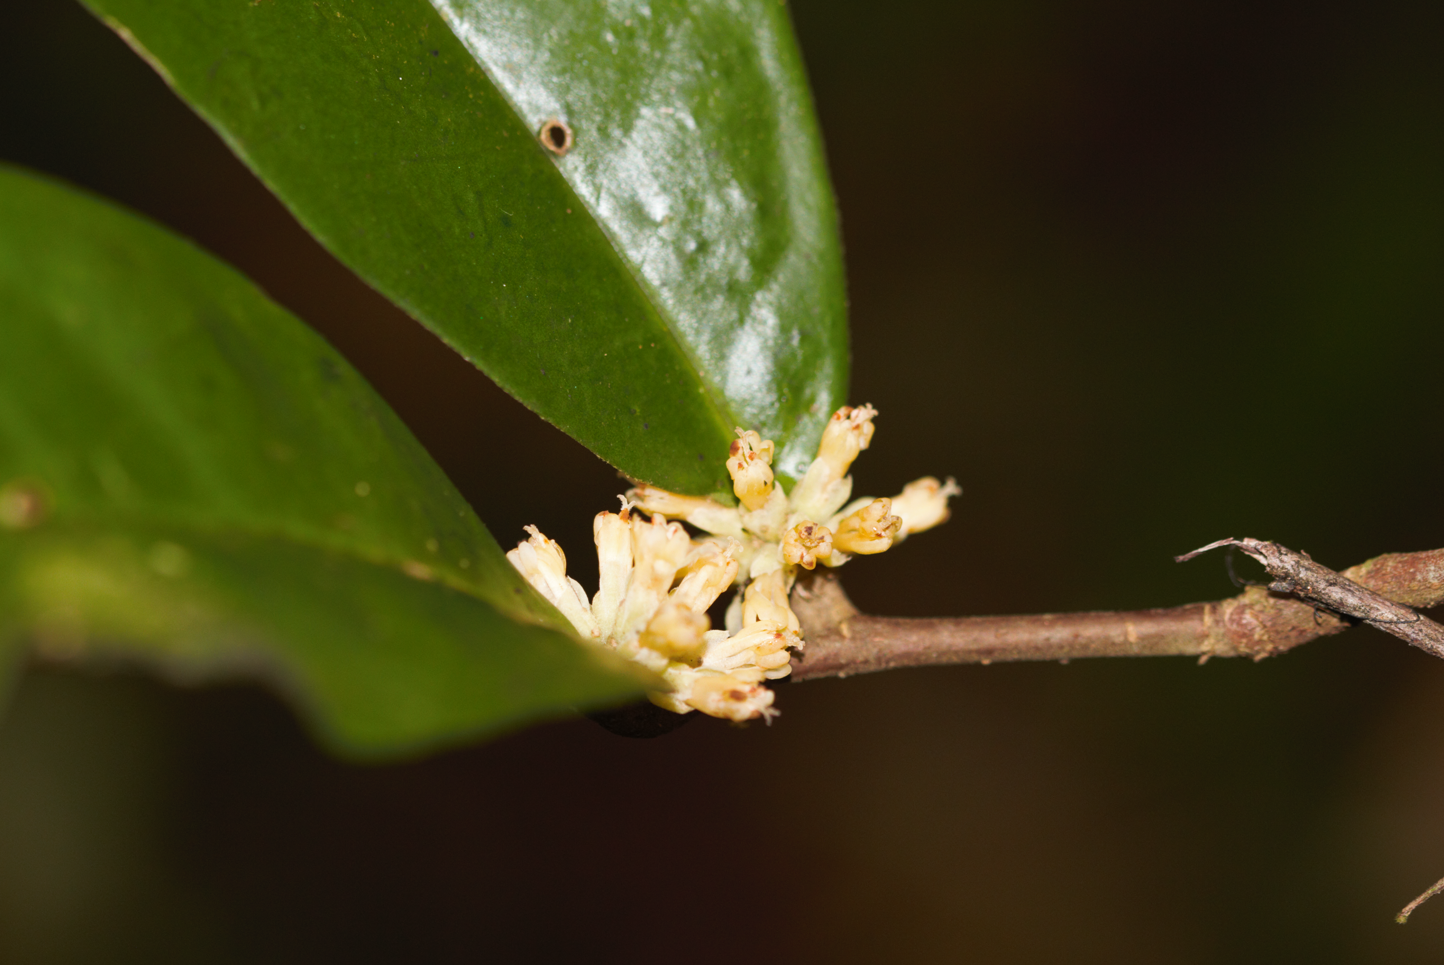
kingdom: Plantae
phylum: Tracheophyta
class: Magnoliopsida
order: Malpighiales
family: Dichapetalaceae
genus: Tapura
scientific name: Tapura guianensis
